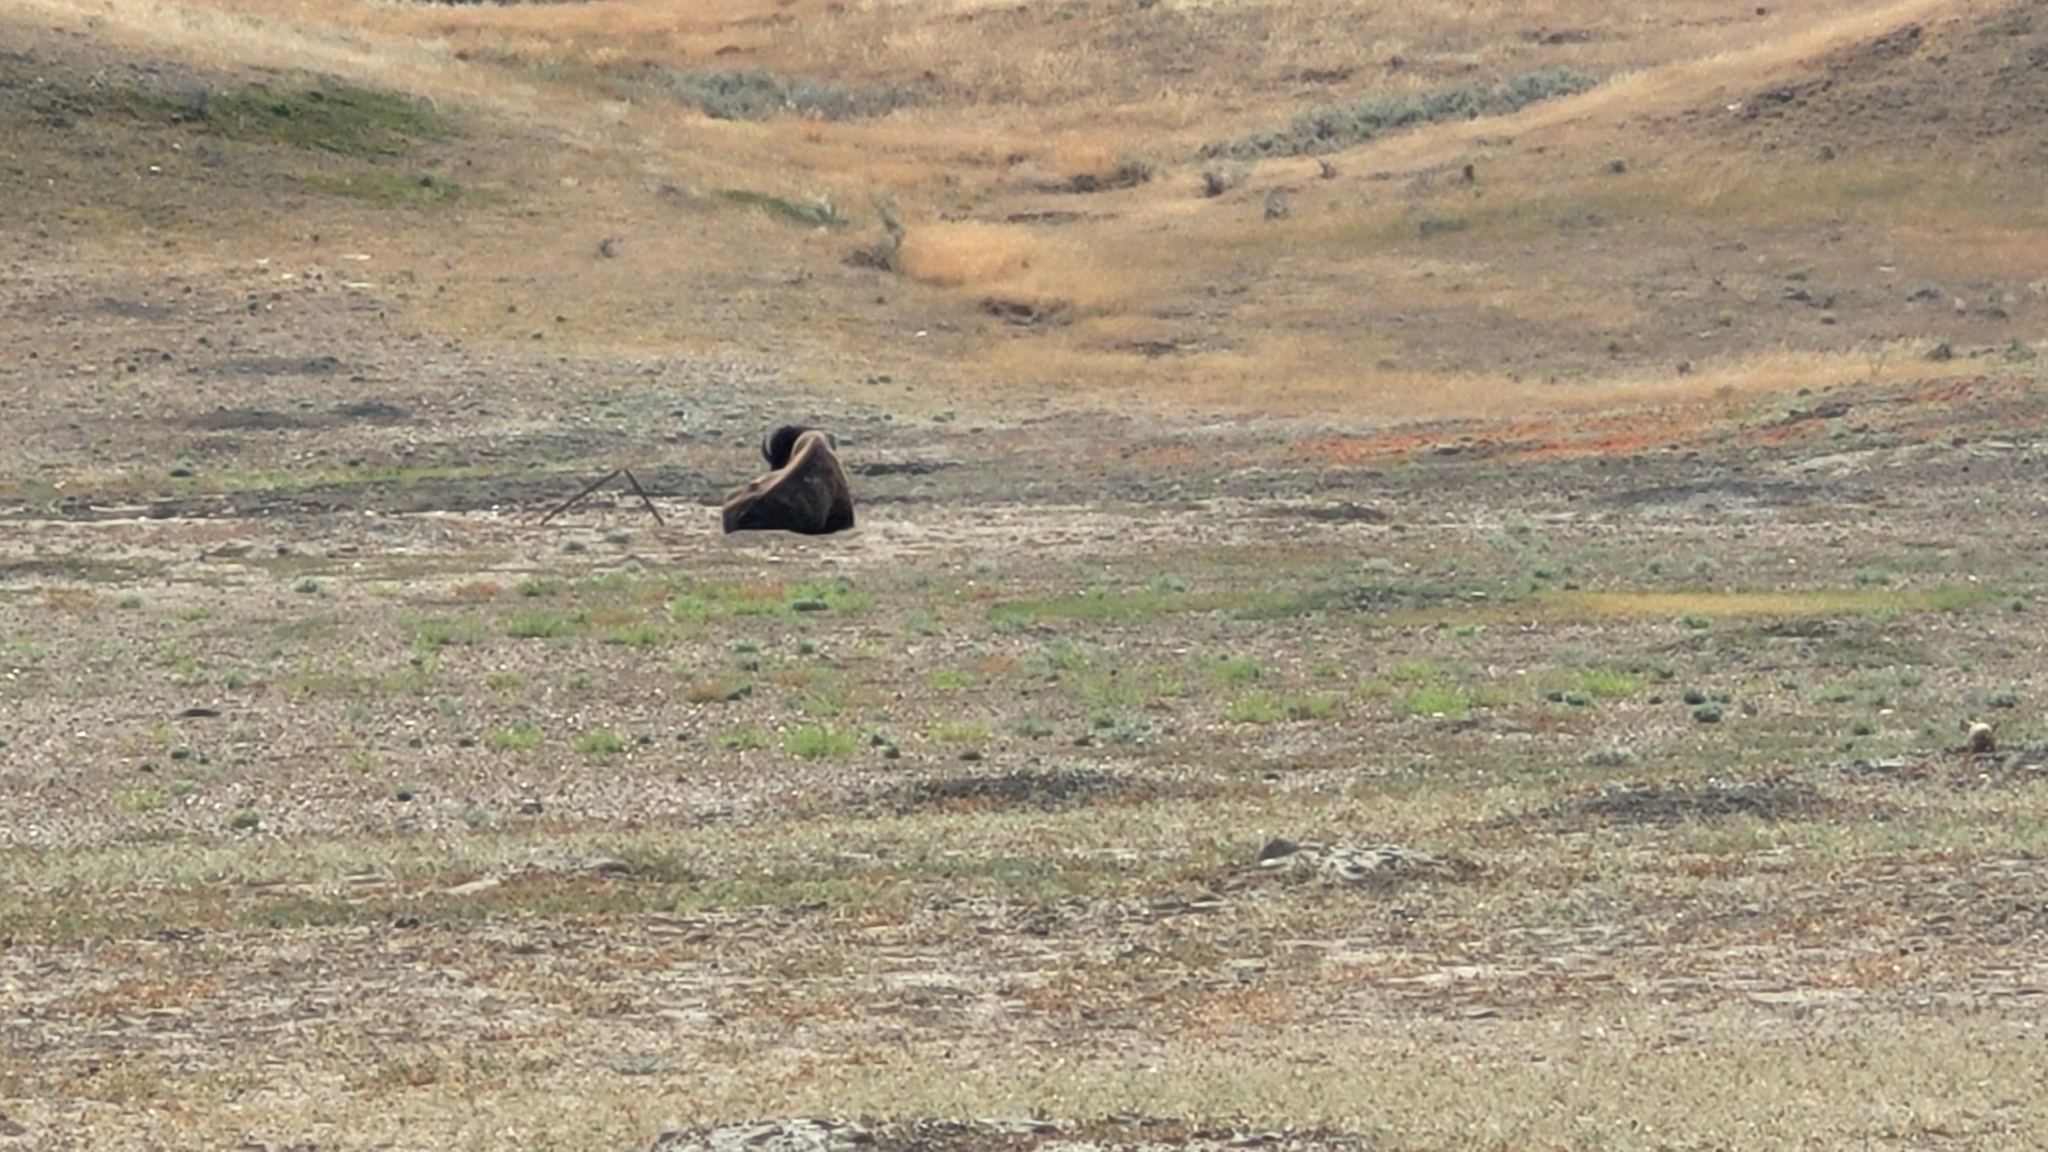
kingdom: Animalia
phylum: Chordata
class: Mammalia
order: Artiodactyla
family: Bovidae
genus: Bison
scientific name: Bison bison
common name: American bison
